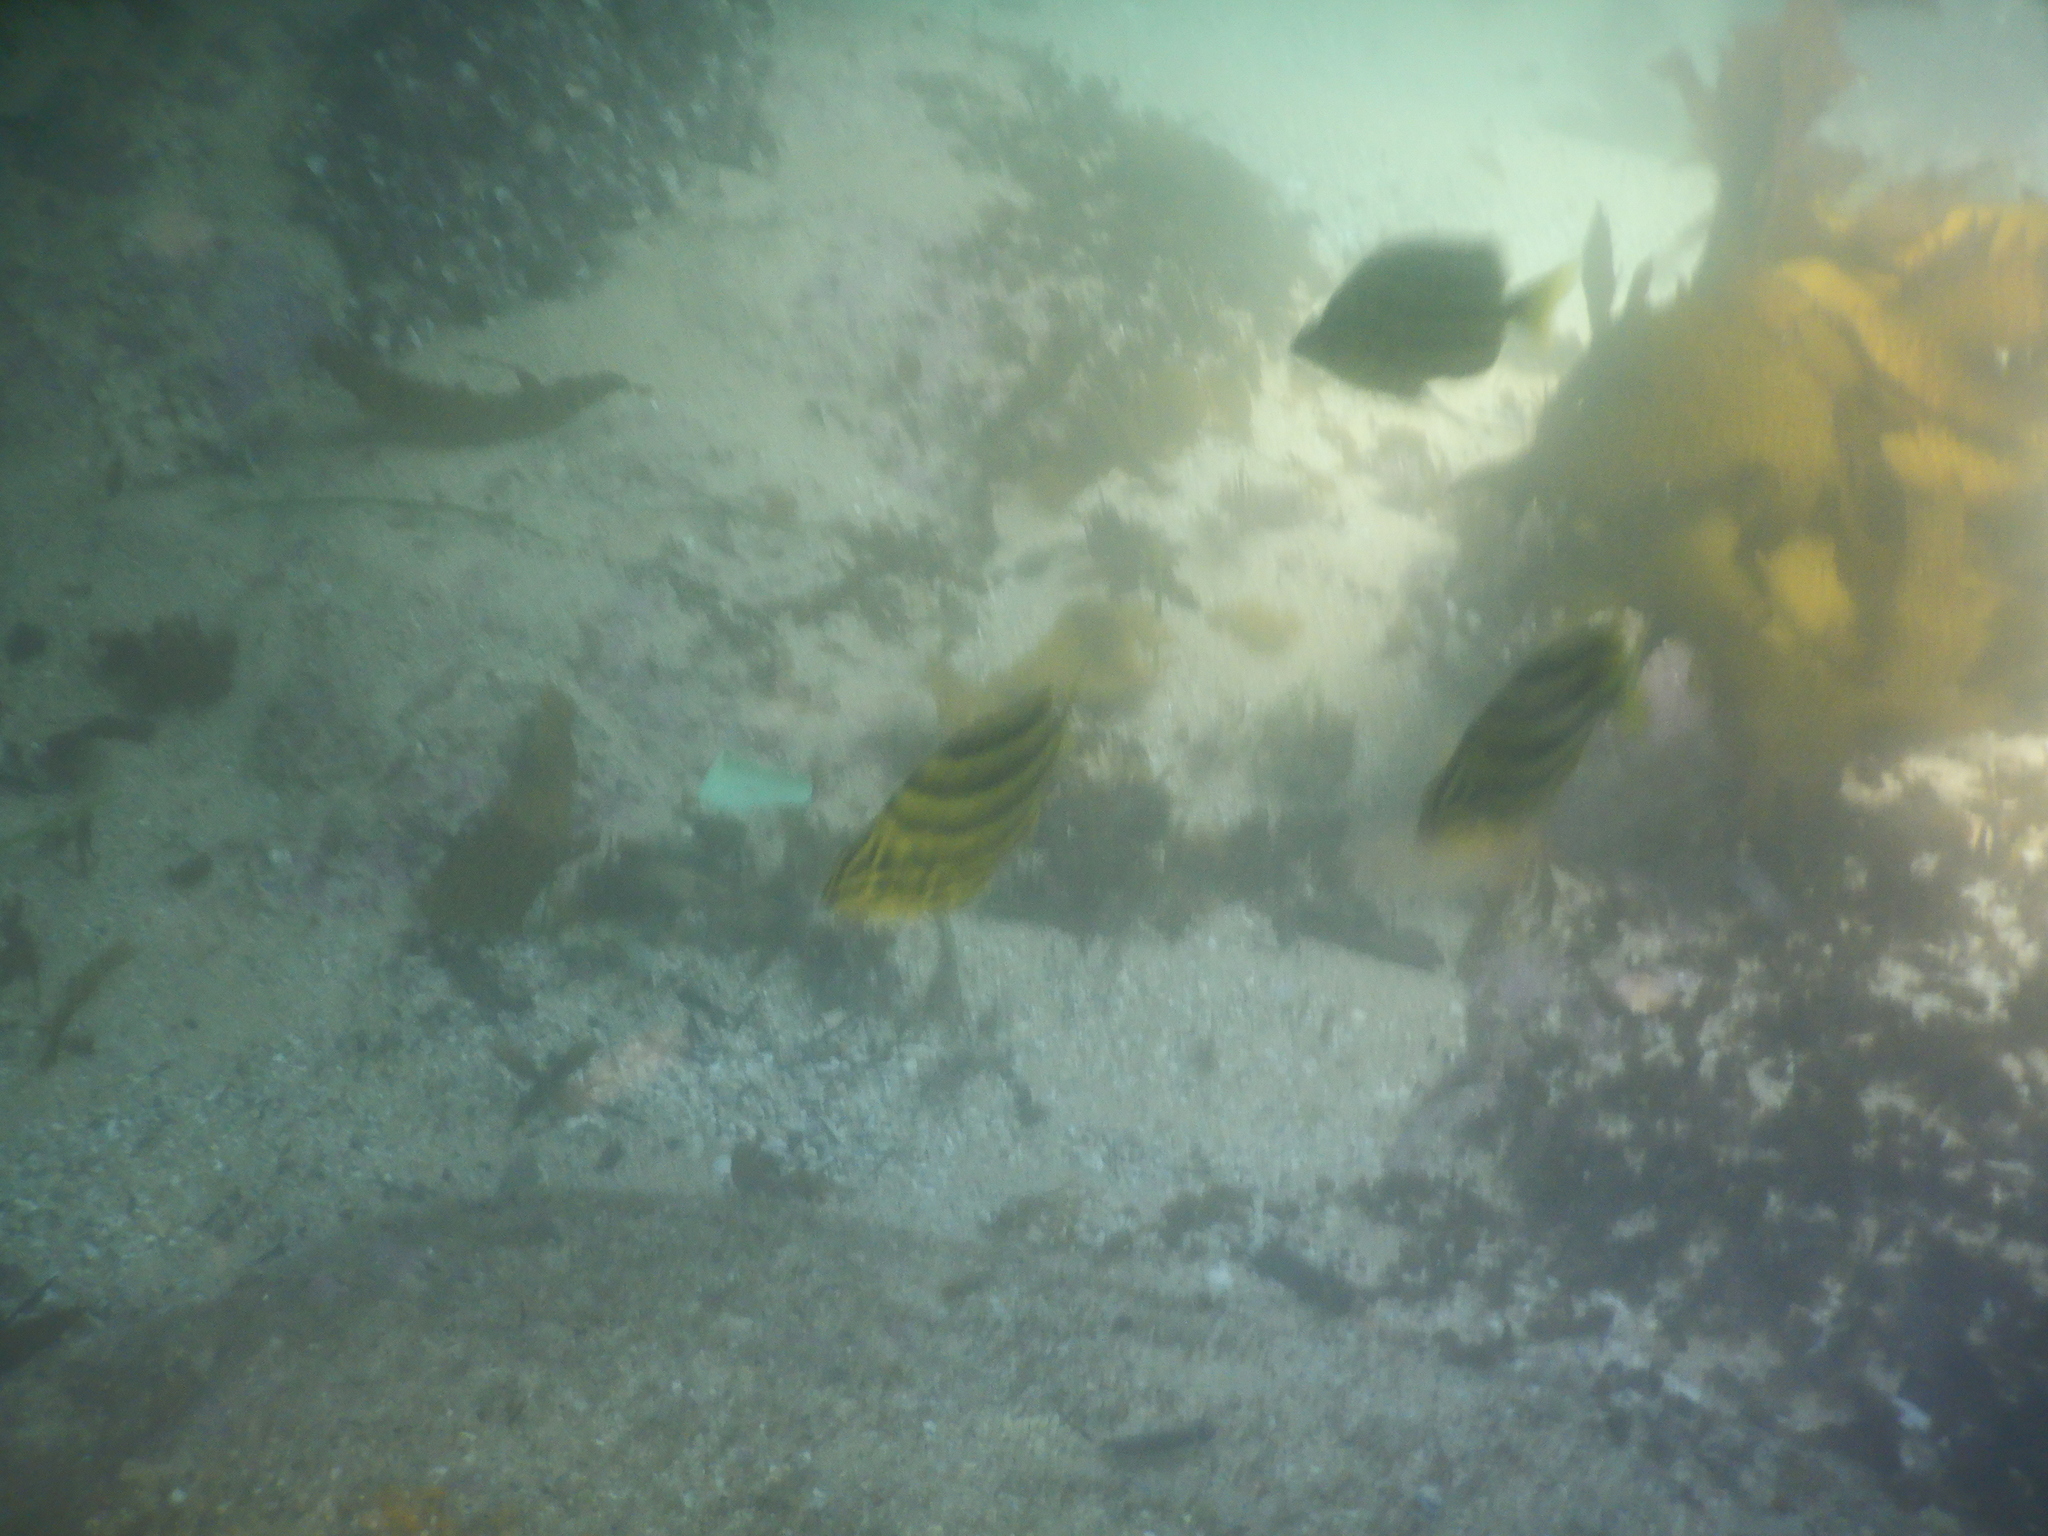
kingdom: Animalia
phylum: Chordata
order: Perciformes
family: Kyphosidae
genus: Microcanthus
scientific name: Microcanthus joyceae
